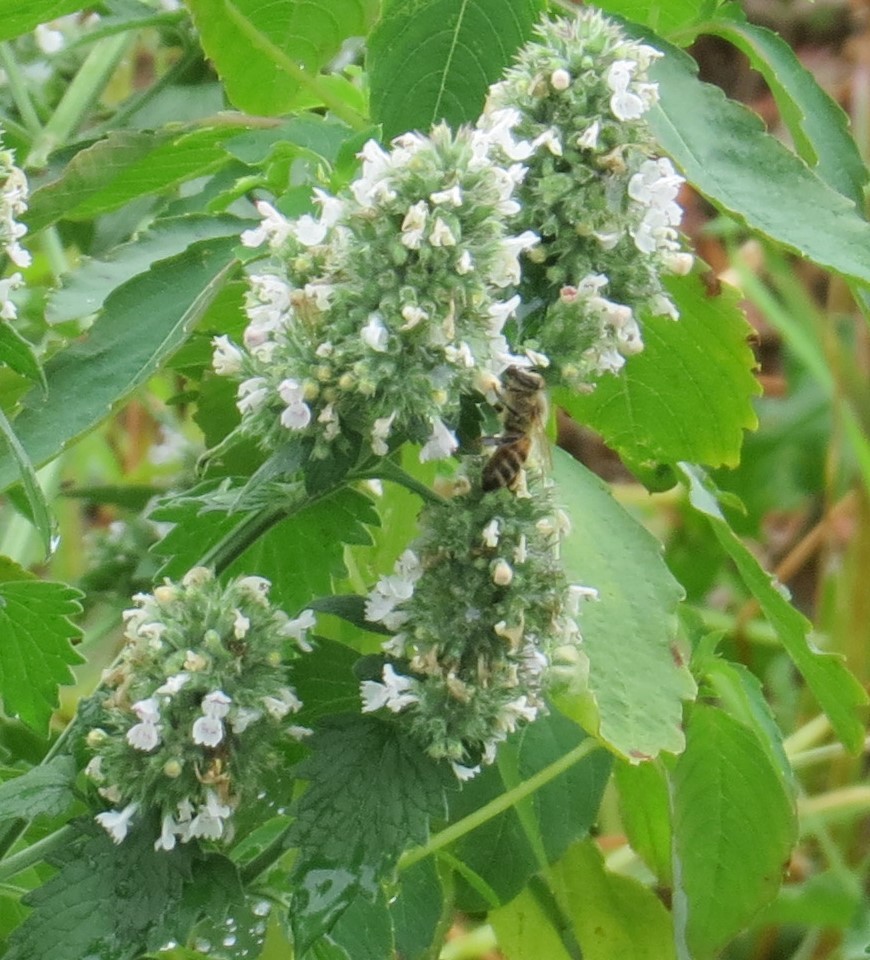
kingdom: Plantae
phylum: Tracheophyta
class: Magnoliopsida
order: Lamiales
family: Lamiaceae
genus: Nepeta
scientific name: Nepeta cataria
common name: Catnip
